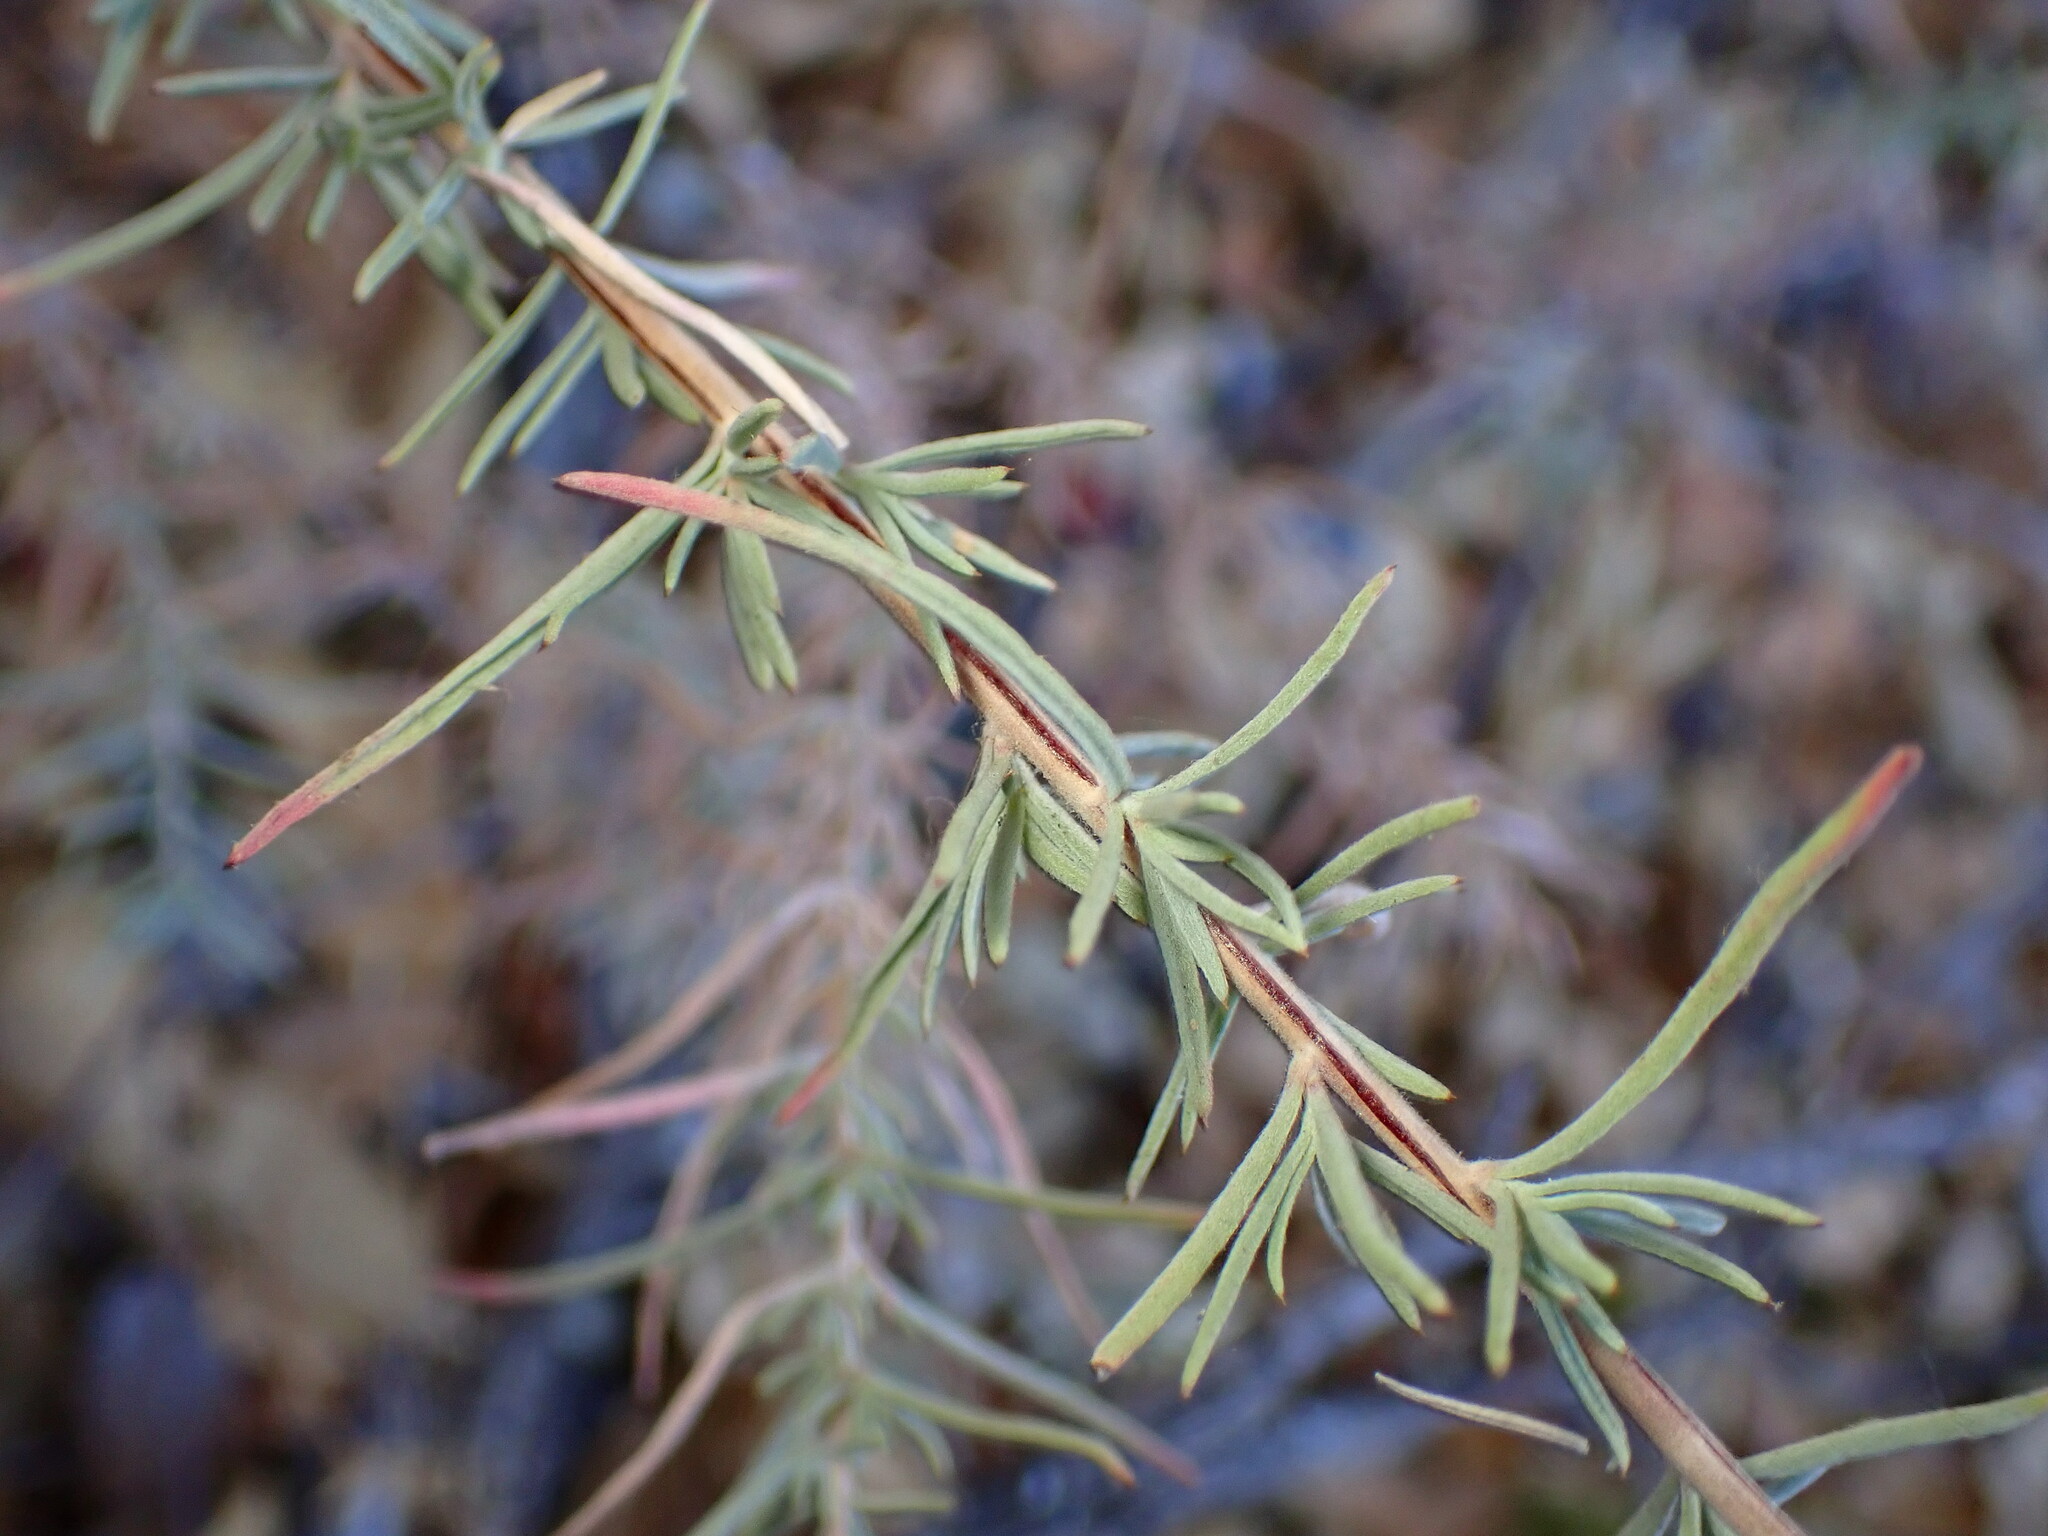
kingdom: Plantae
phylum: Tracheophyta
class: Magnoliopsida
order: Myrtales
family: Onagraceae
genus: Epilobium
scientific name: Epilobium canum
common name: California-fuchsia
